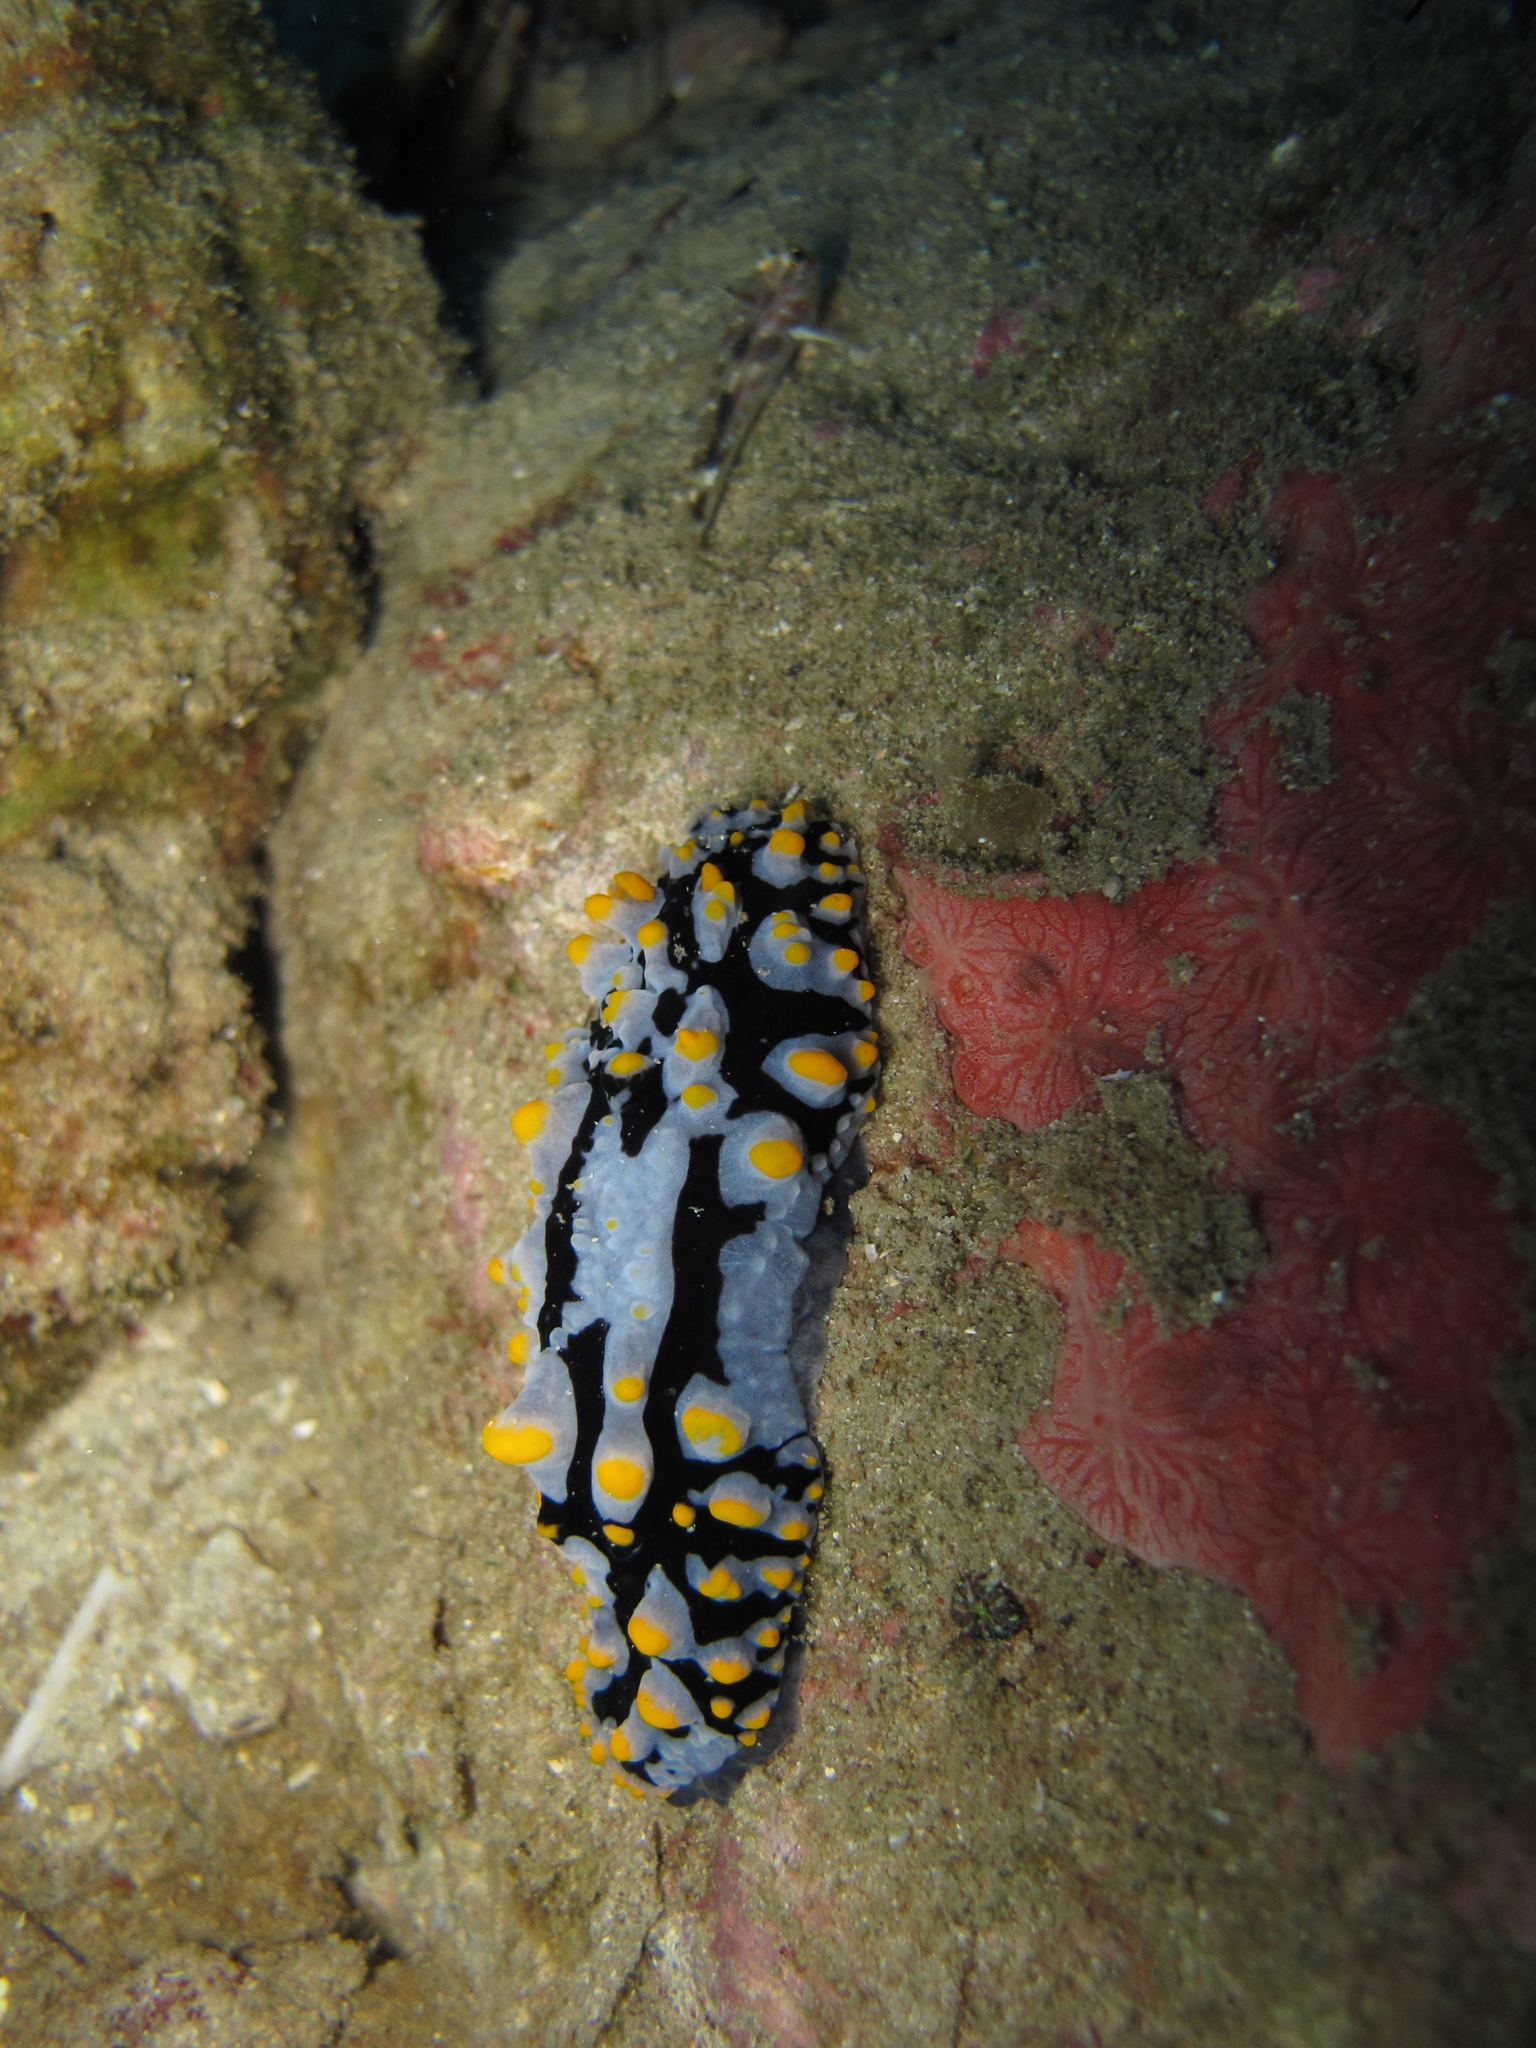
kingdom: Animalia
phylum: Mollusca
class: Gastropoda
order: Nudibranchia
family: Phyllidiidae
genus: Phyllidia
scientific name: Phyllidia varicosa
